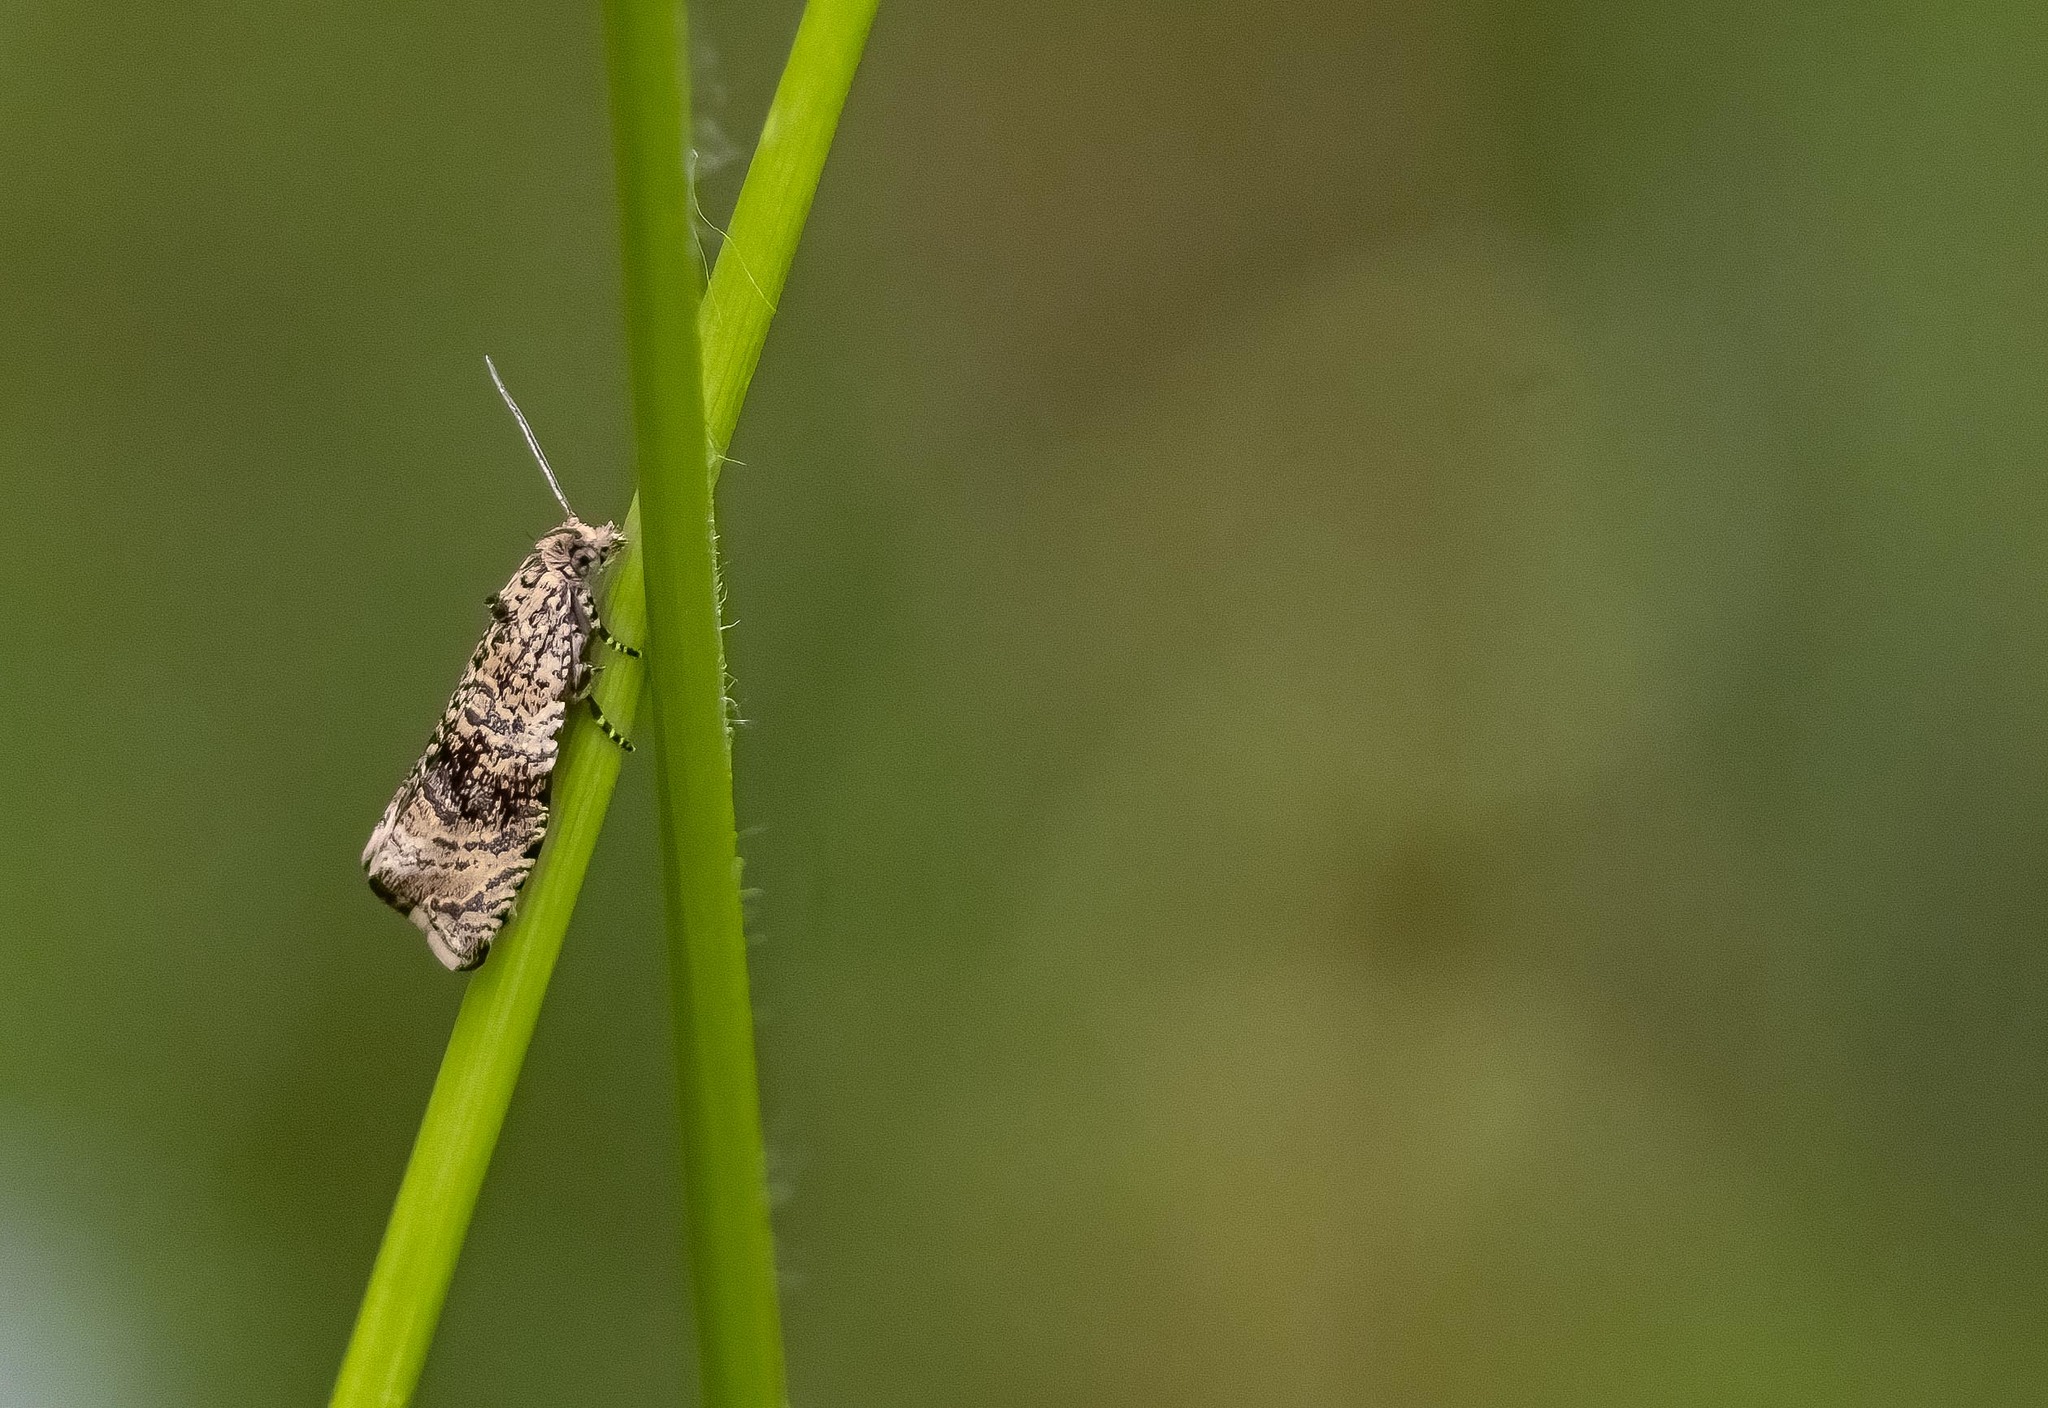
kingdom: Animalia
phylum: Arthropoda
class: Insecta
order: Lepidoptera
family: Tortricidae
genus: Syricoris
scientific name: Syricoris lacunana
